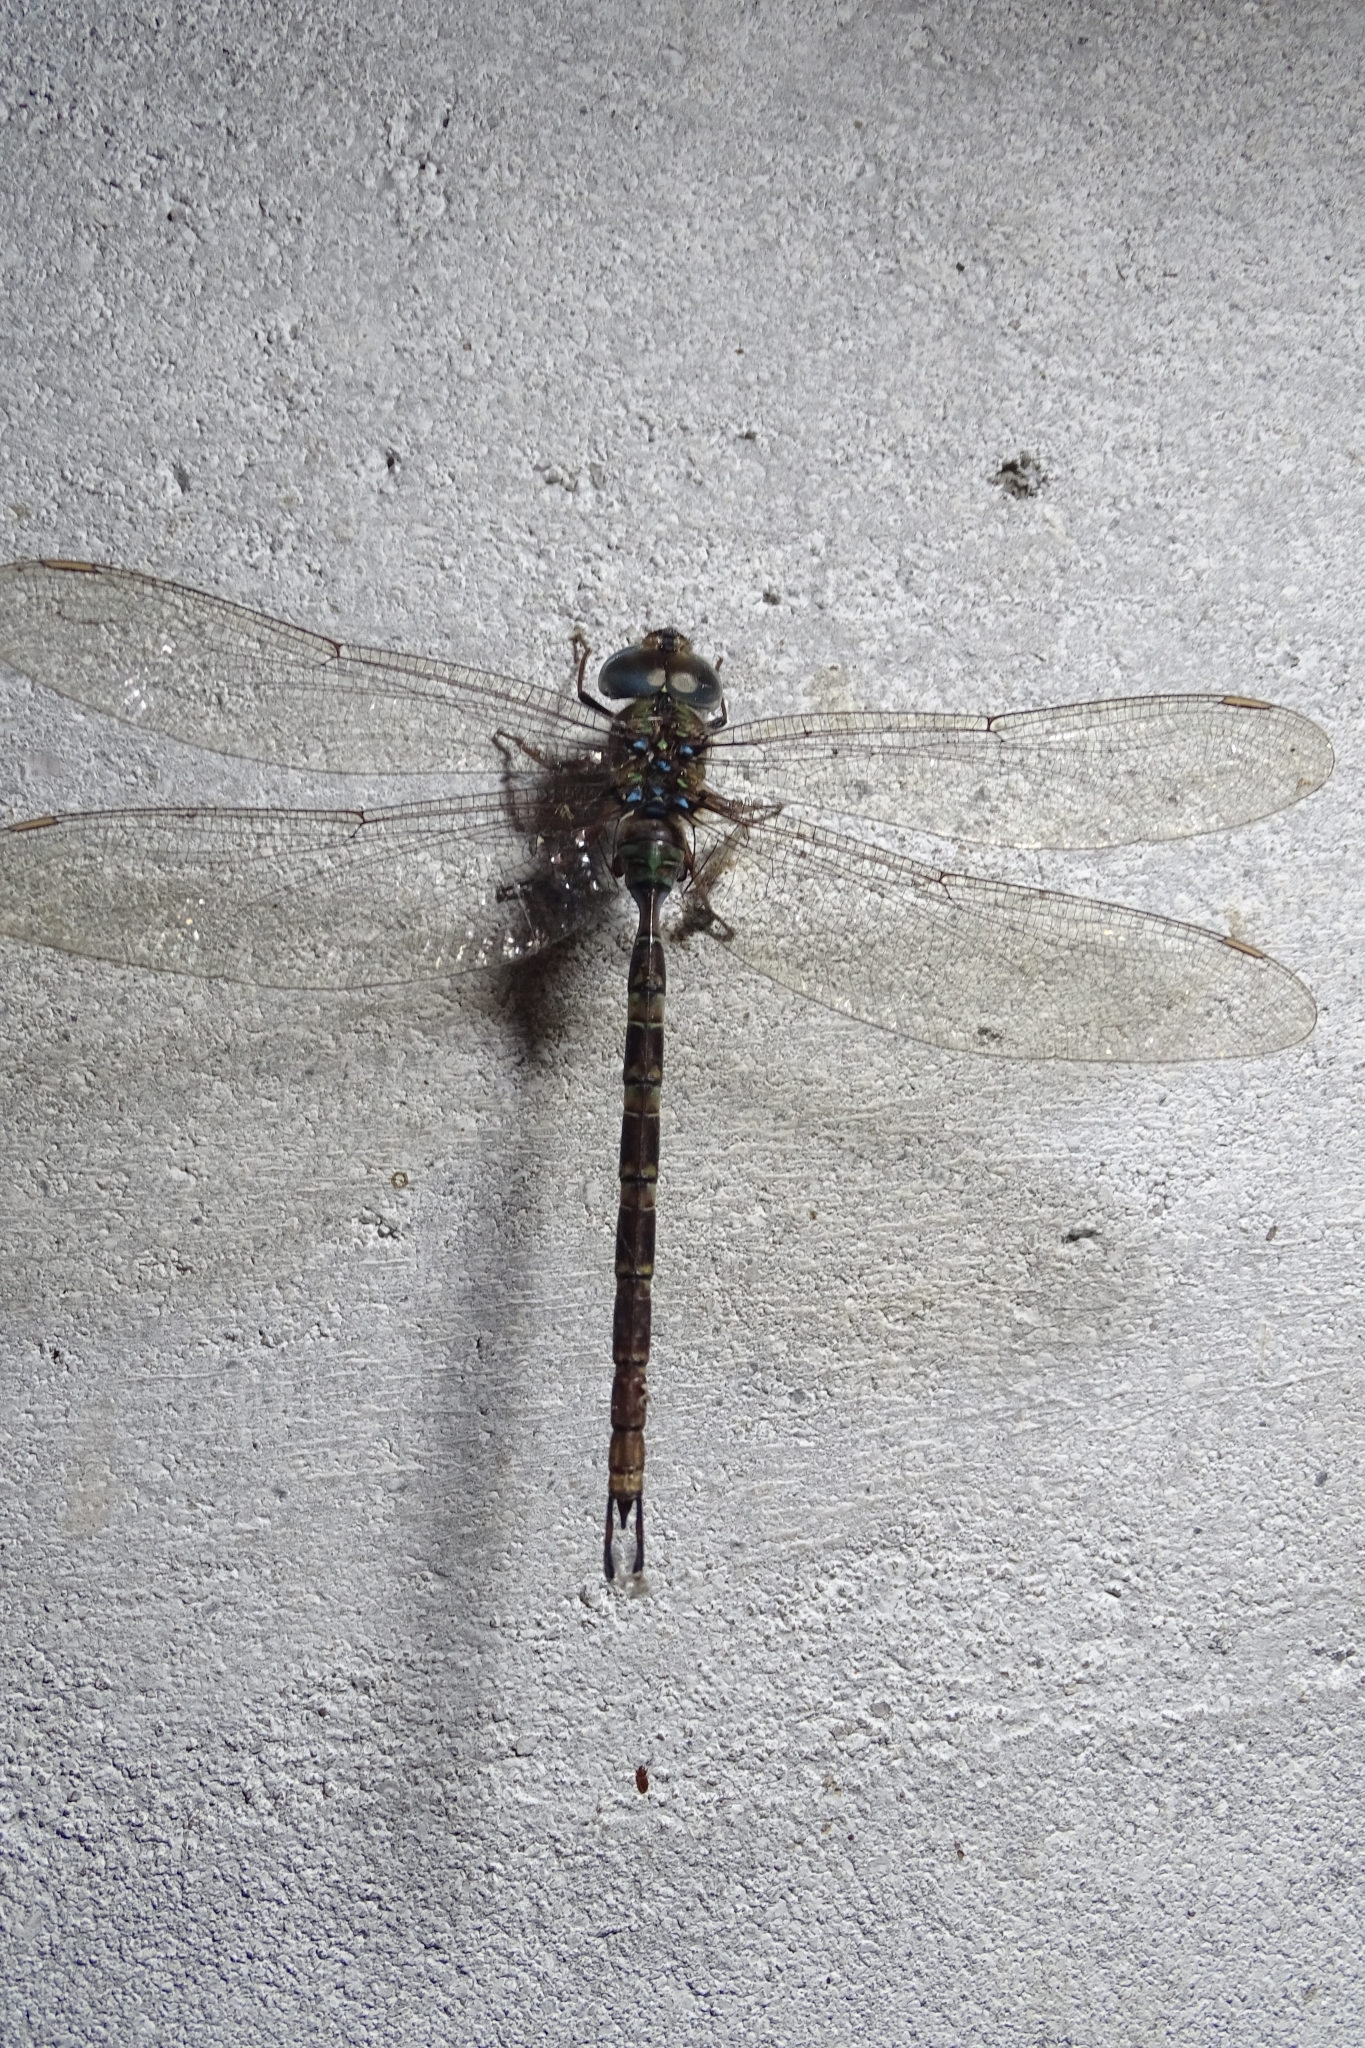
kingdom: Animalia
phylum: Arthropoda
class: Insecta
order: Odonata
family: Aeshnidae
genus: Gynacantha
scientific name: Gynacantha dravida
